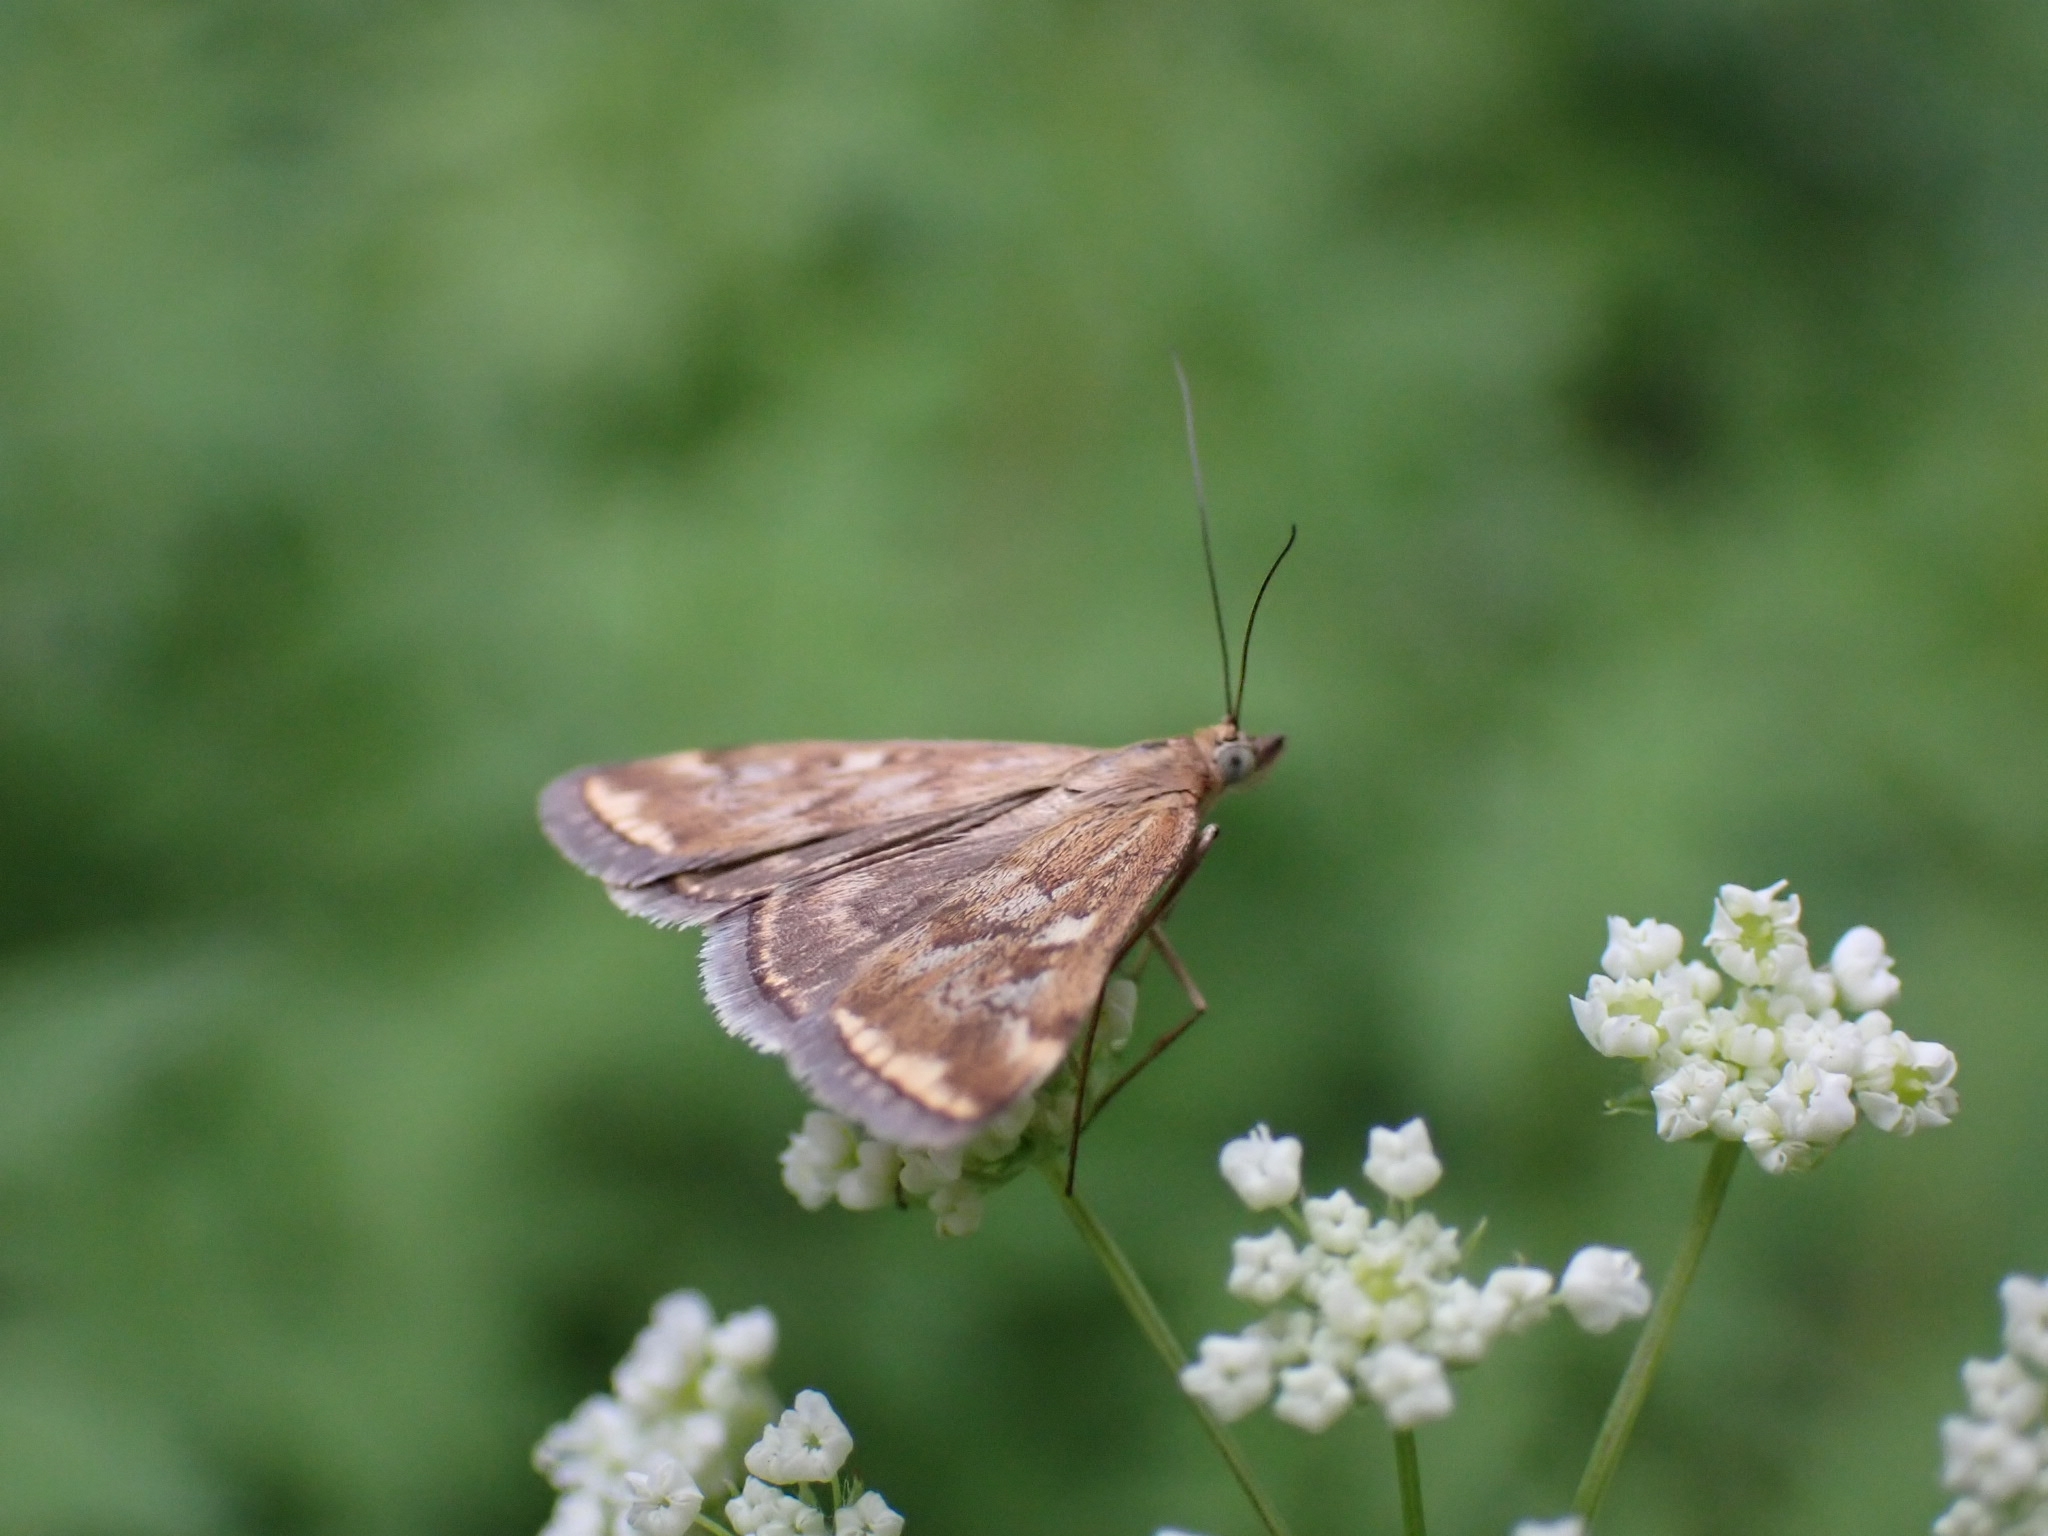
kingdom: Animalia
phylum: Arthropoda
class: Insecta
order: Lepidoptera
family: Crambidae
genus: Loxostege
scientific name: Loxostege sticticalis
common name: Crambid moth
